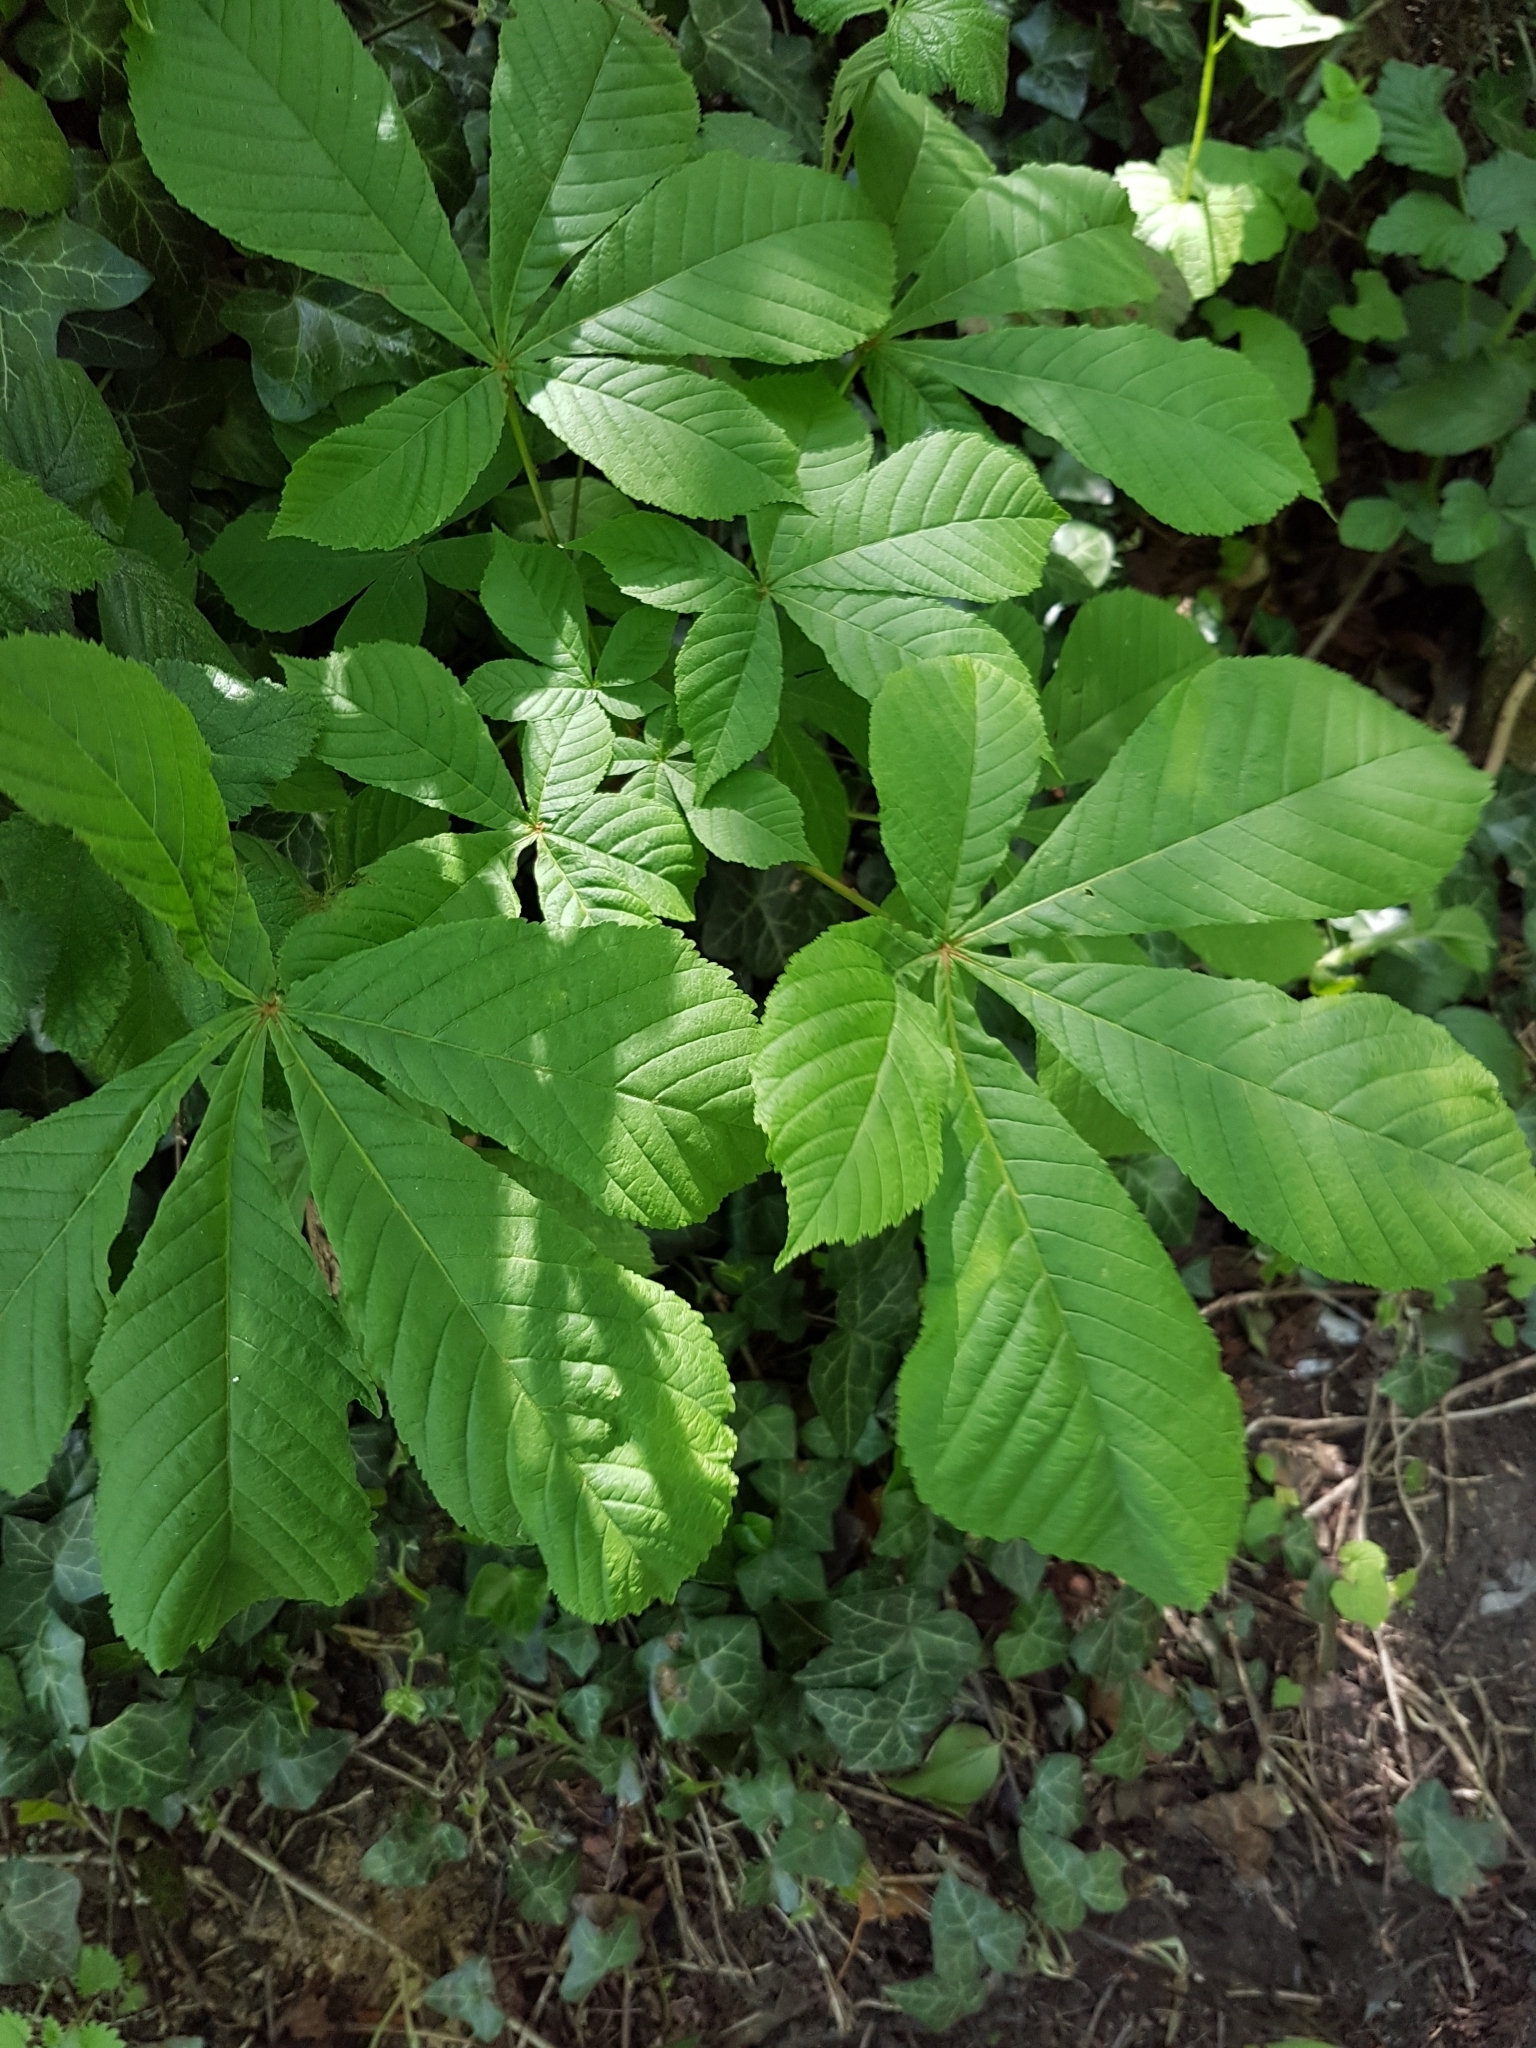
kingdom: Plantae
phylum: Tracheophyta
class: Magnoliopsida
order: Sapindales
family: Sapindaceae
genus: Aesculus
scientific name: Aesculus hippocastanum
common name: Horse-chestnut
